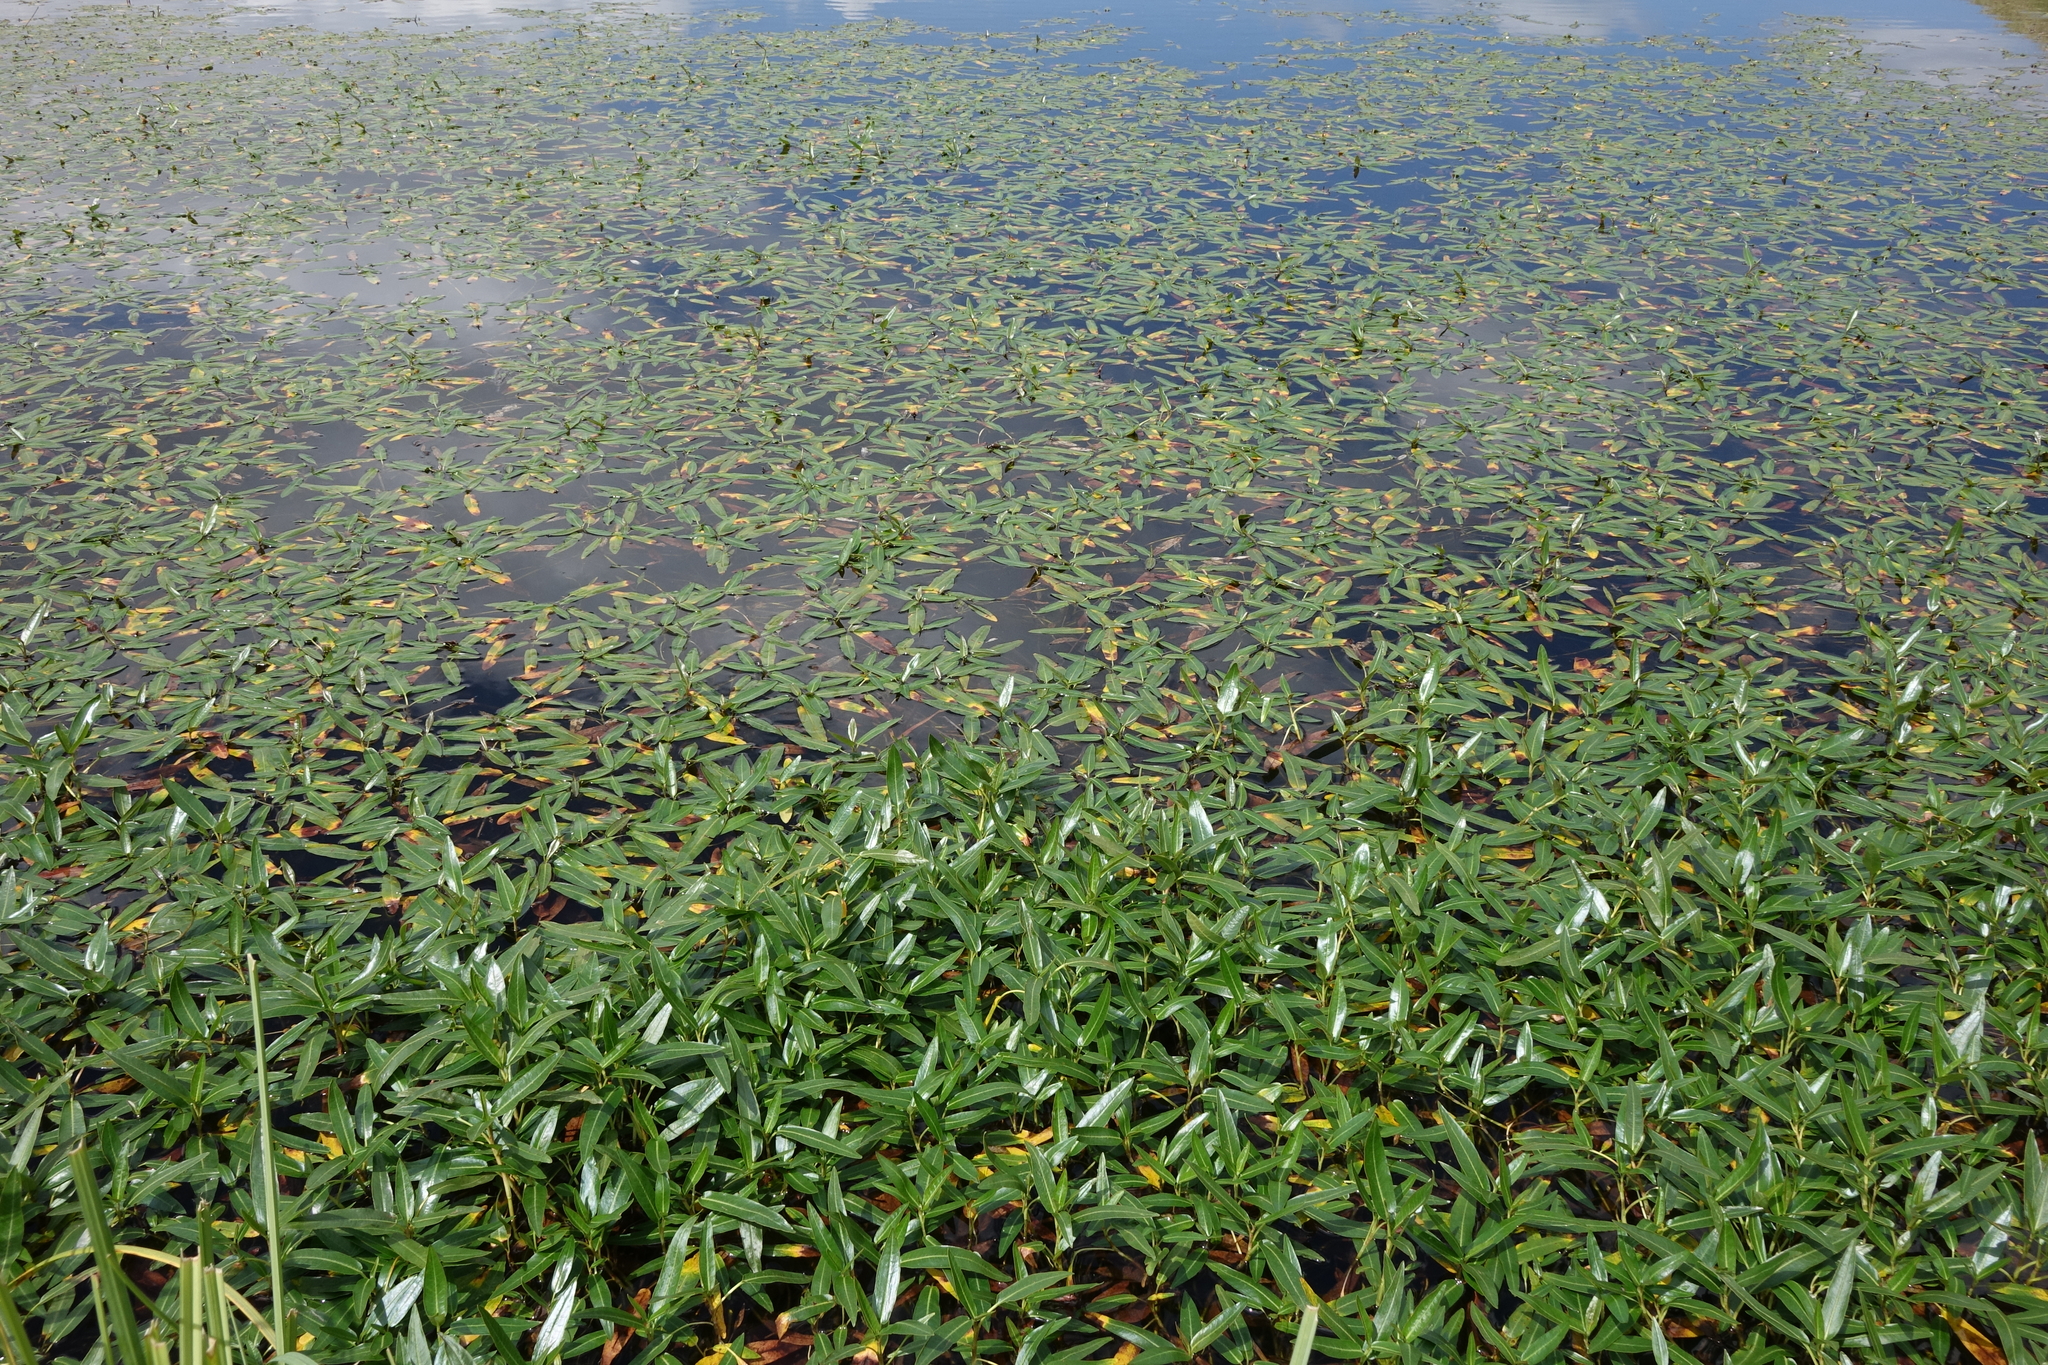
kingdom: Plantae
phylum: Tracheophyta
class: Magnoliopsida
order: Caryophyllales
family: Polygonaceae
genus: Persicaria
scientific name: Persicaria amphibia
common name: Amphibious bistort
